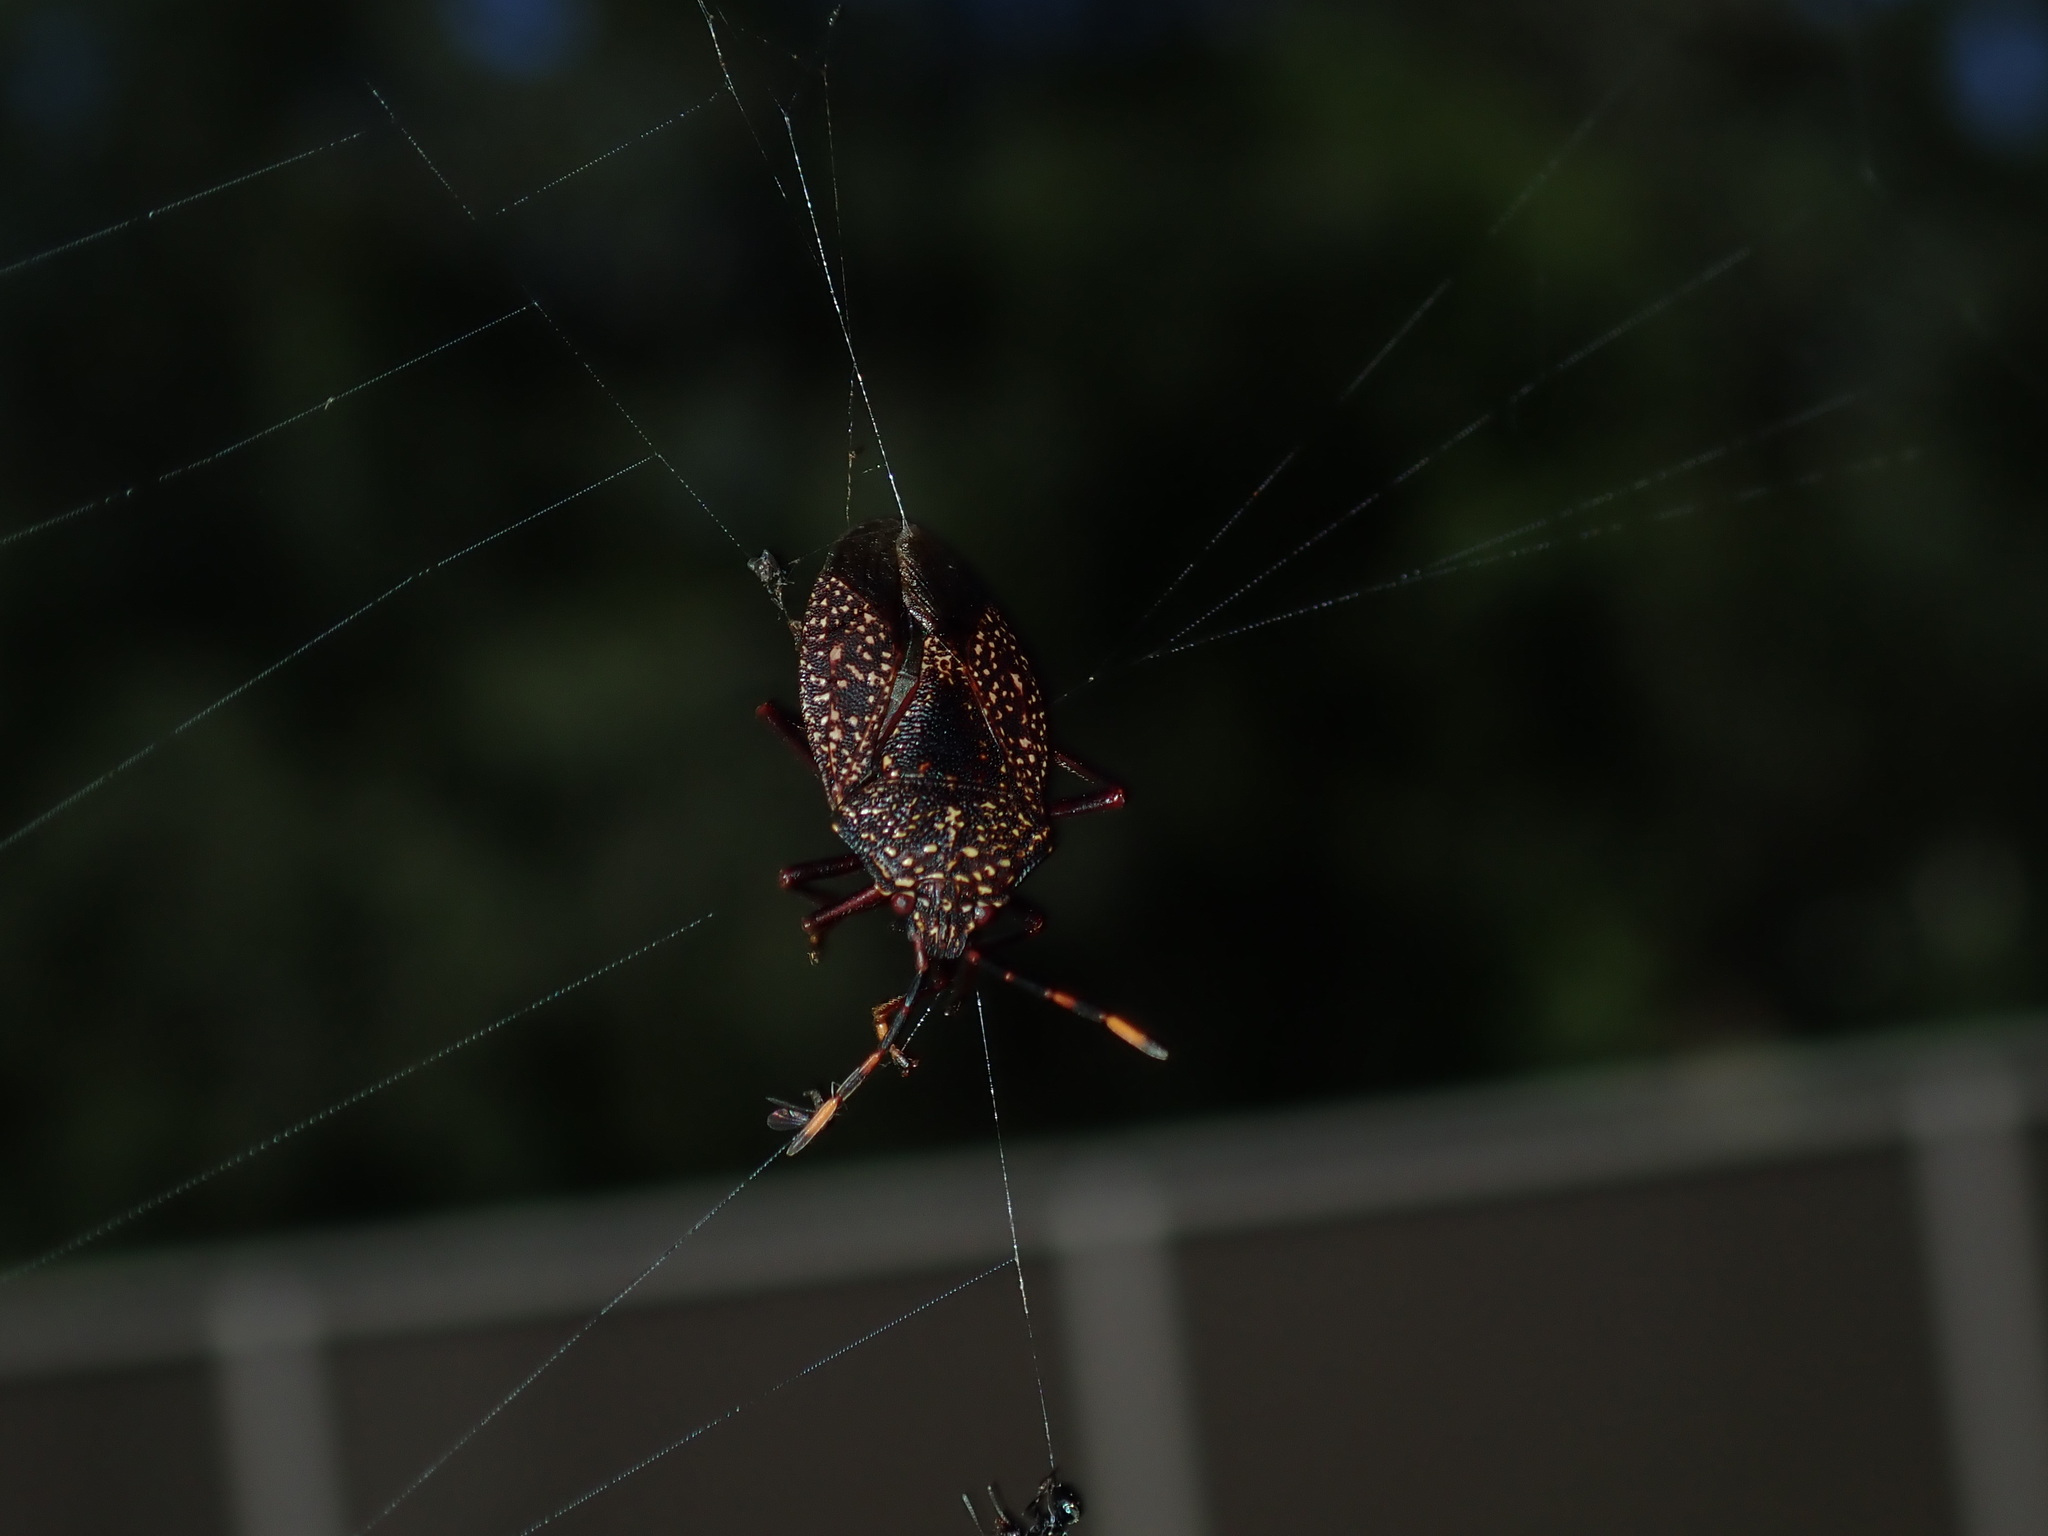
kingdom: Animalia
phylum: Arthropoda
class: Insecta
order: Hemiptera
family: Pentatomidae
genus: Notius
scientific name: Notius
